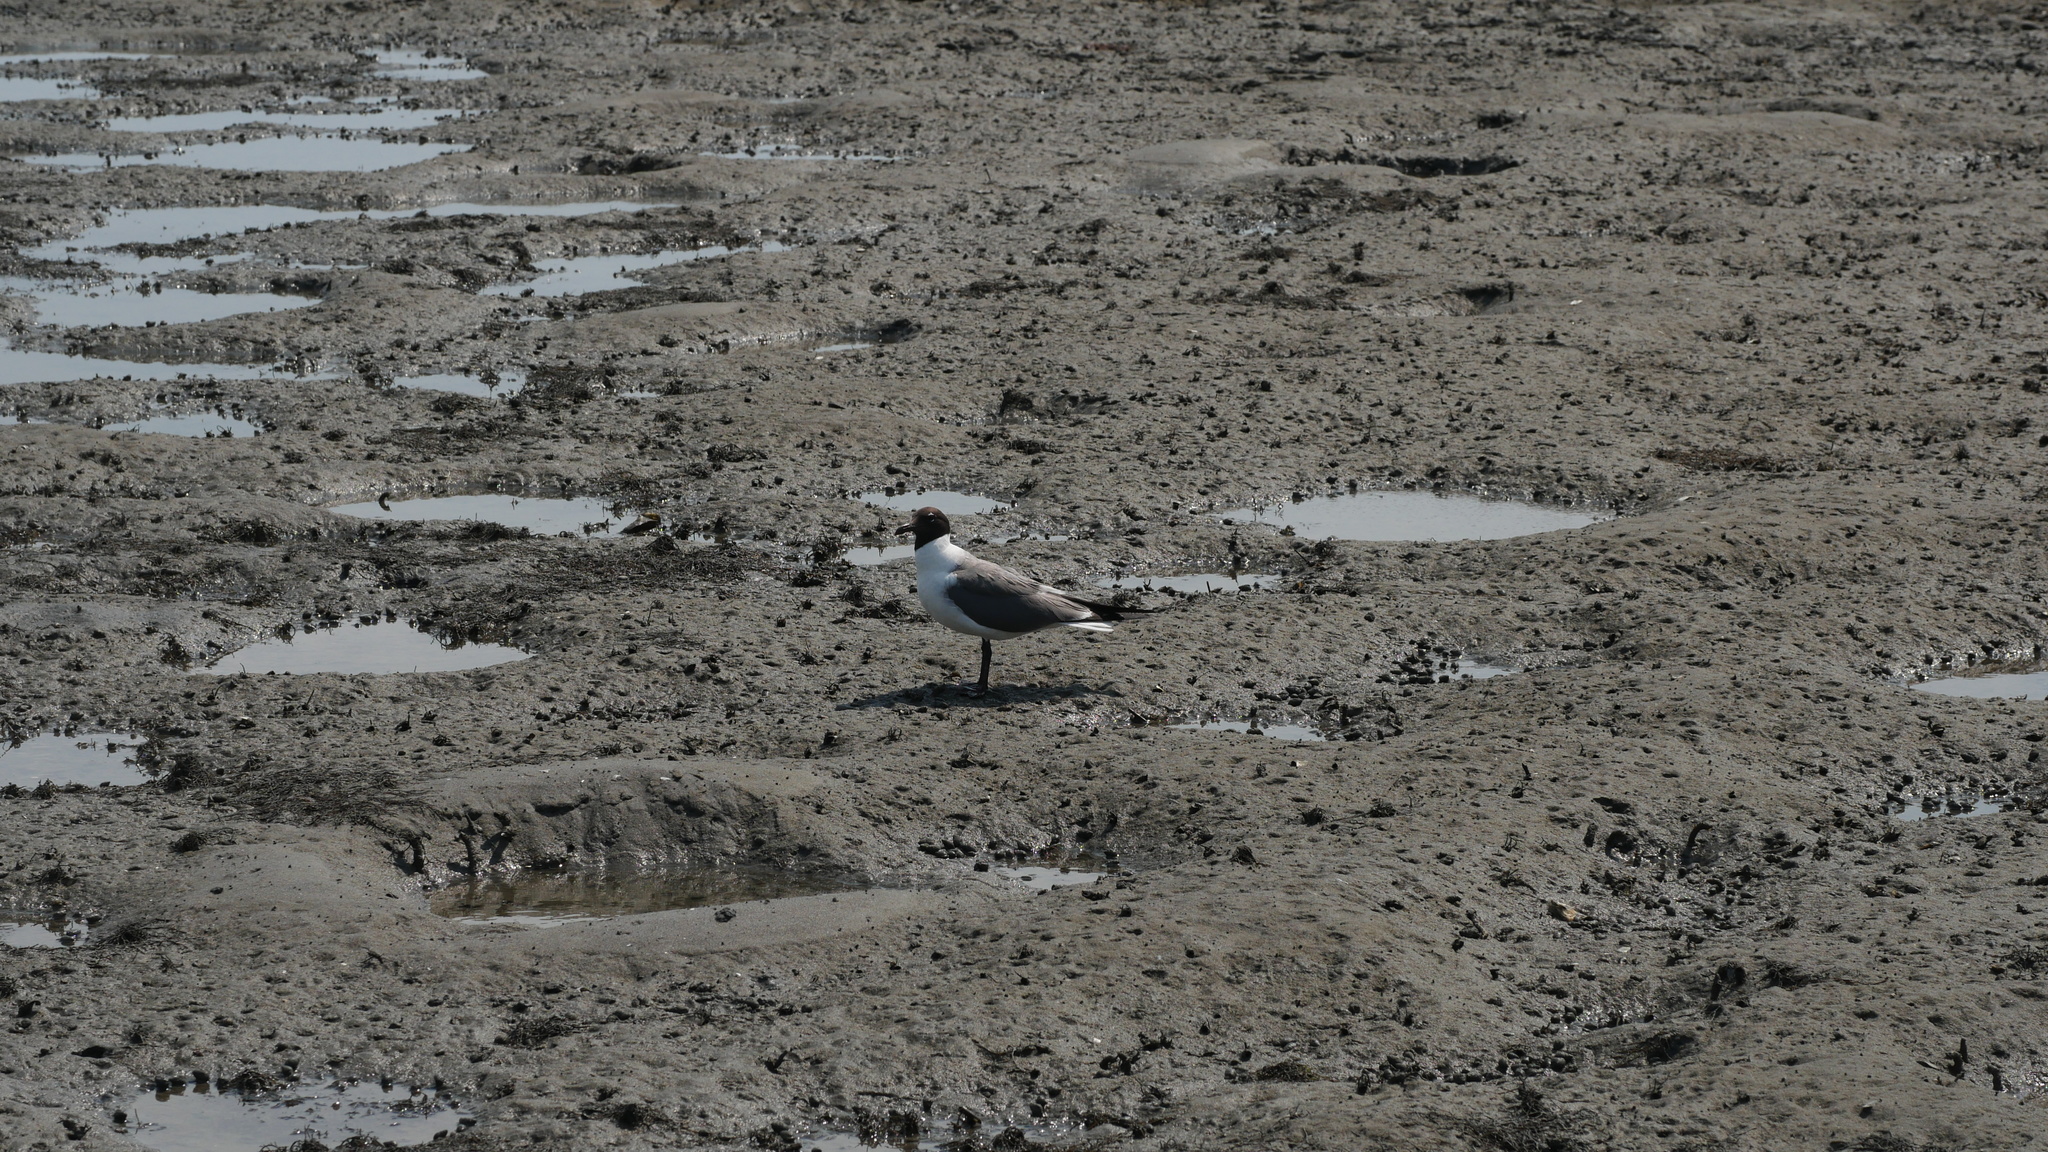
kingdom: Animalia
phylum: Chordata
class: Aves
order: Charadriiformes
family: Laridae
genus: Leucophaeus
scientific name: Leucophaeus atricilla
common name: Laughing gull
